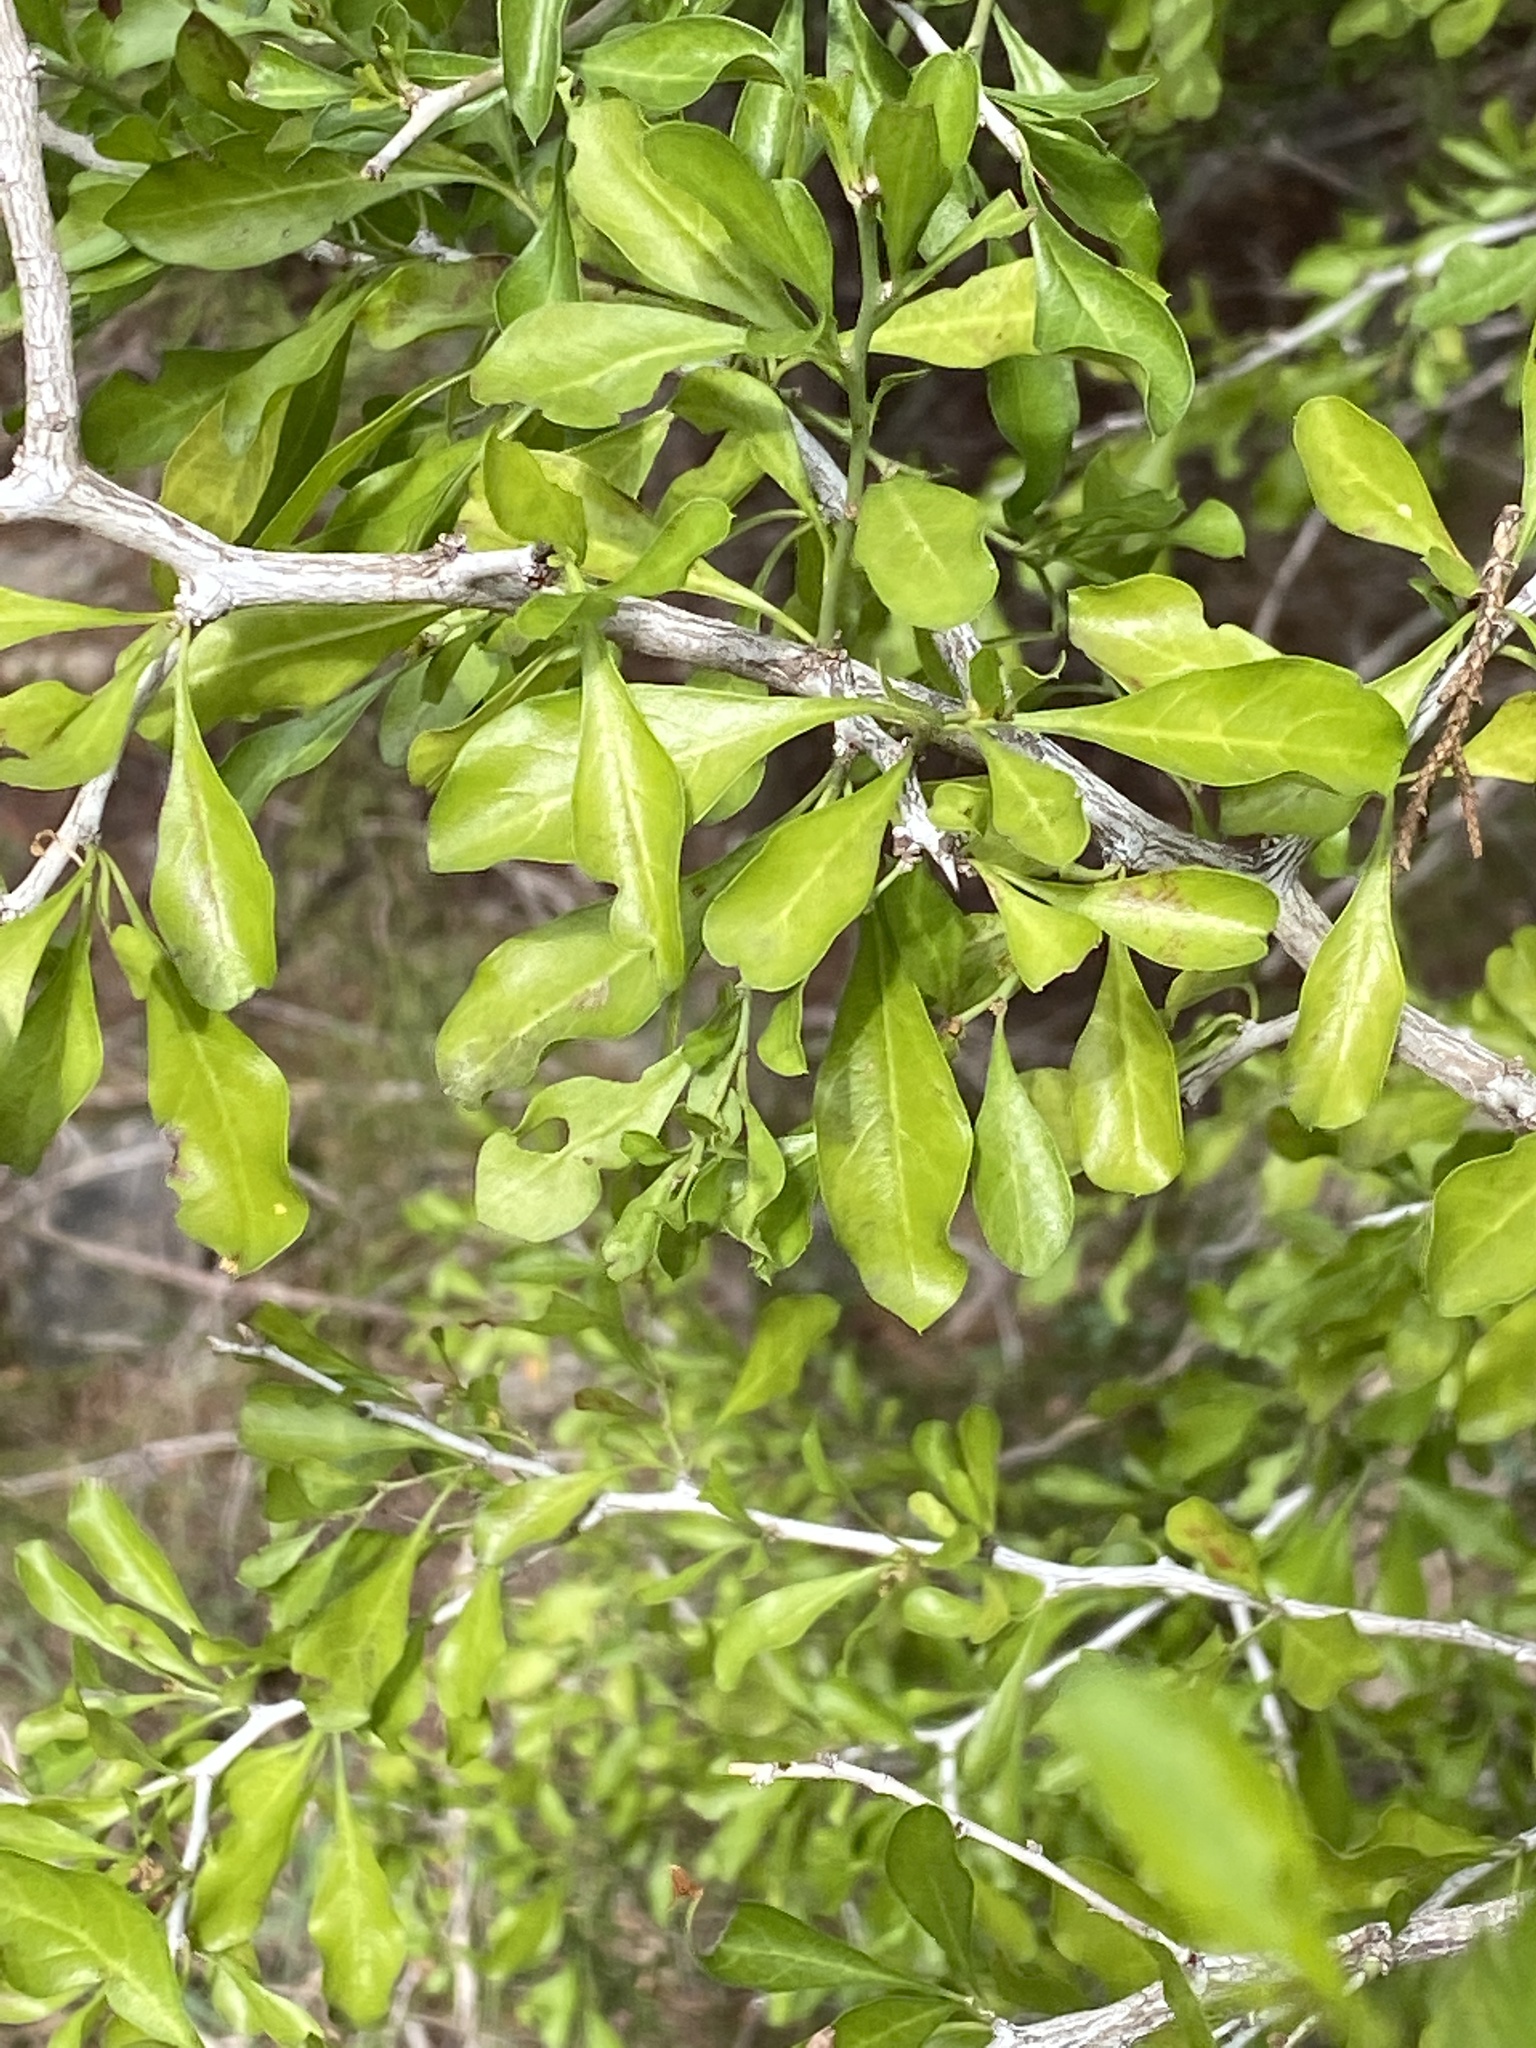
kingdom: Plantae
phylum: Tracheophyta
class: Magnoliopsida
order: Rosales
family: Rhamnaceae
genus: Condalia
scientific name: Condalia hookeri
